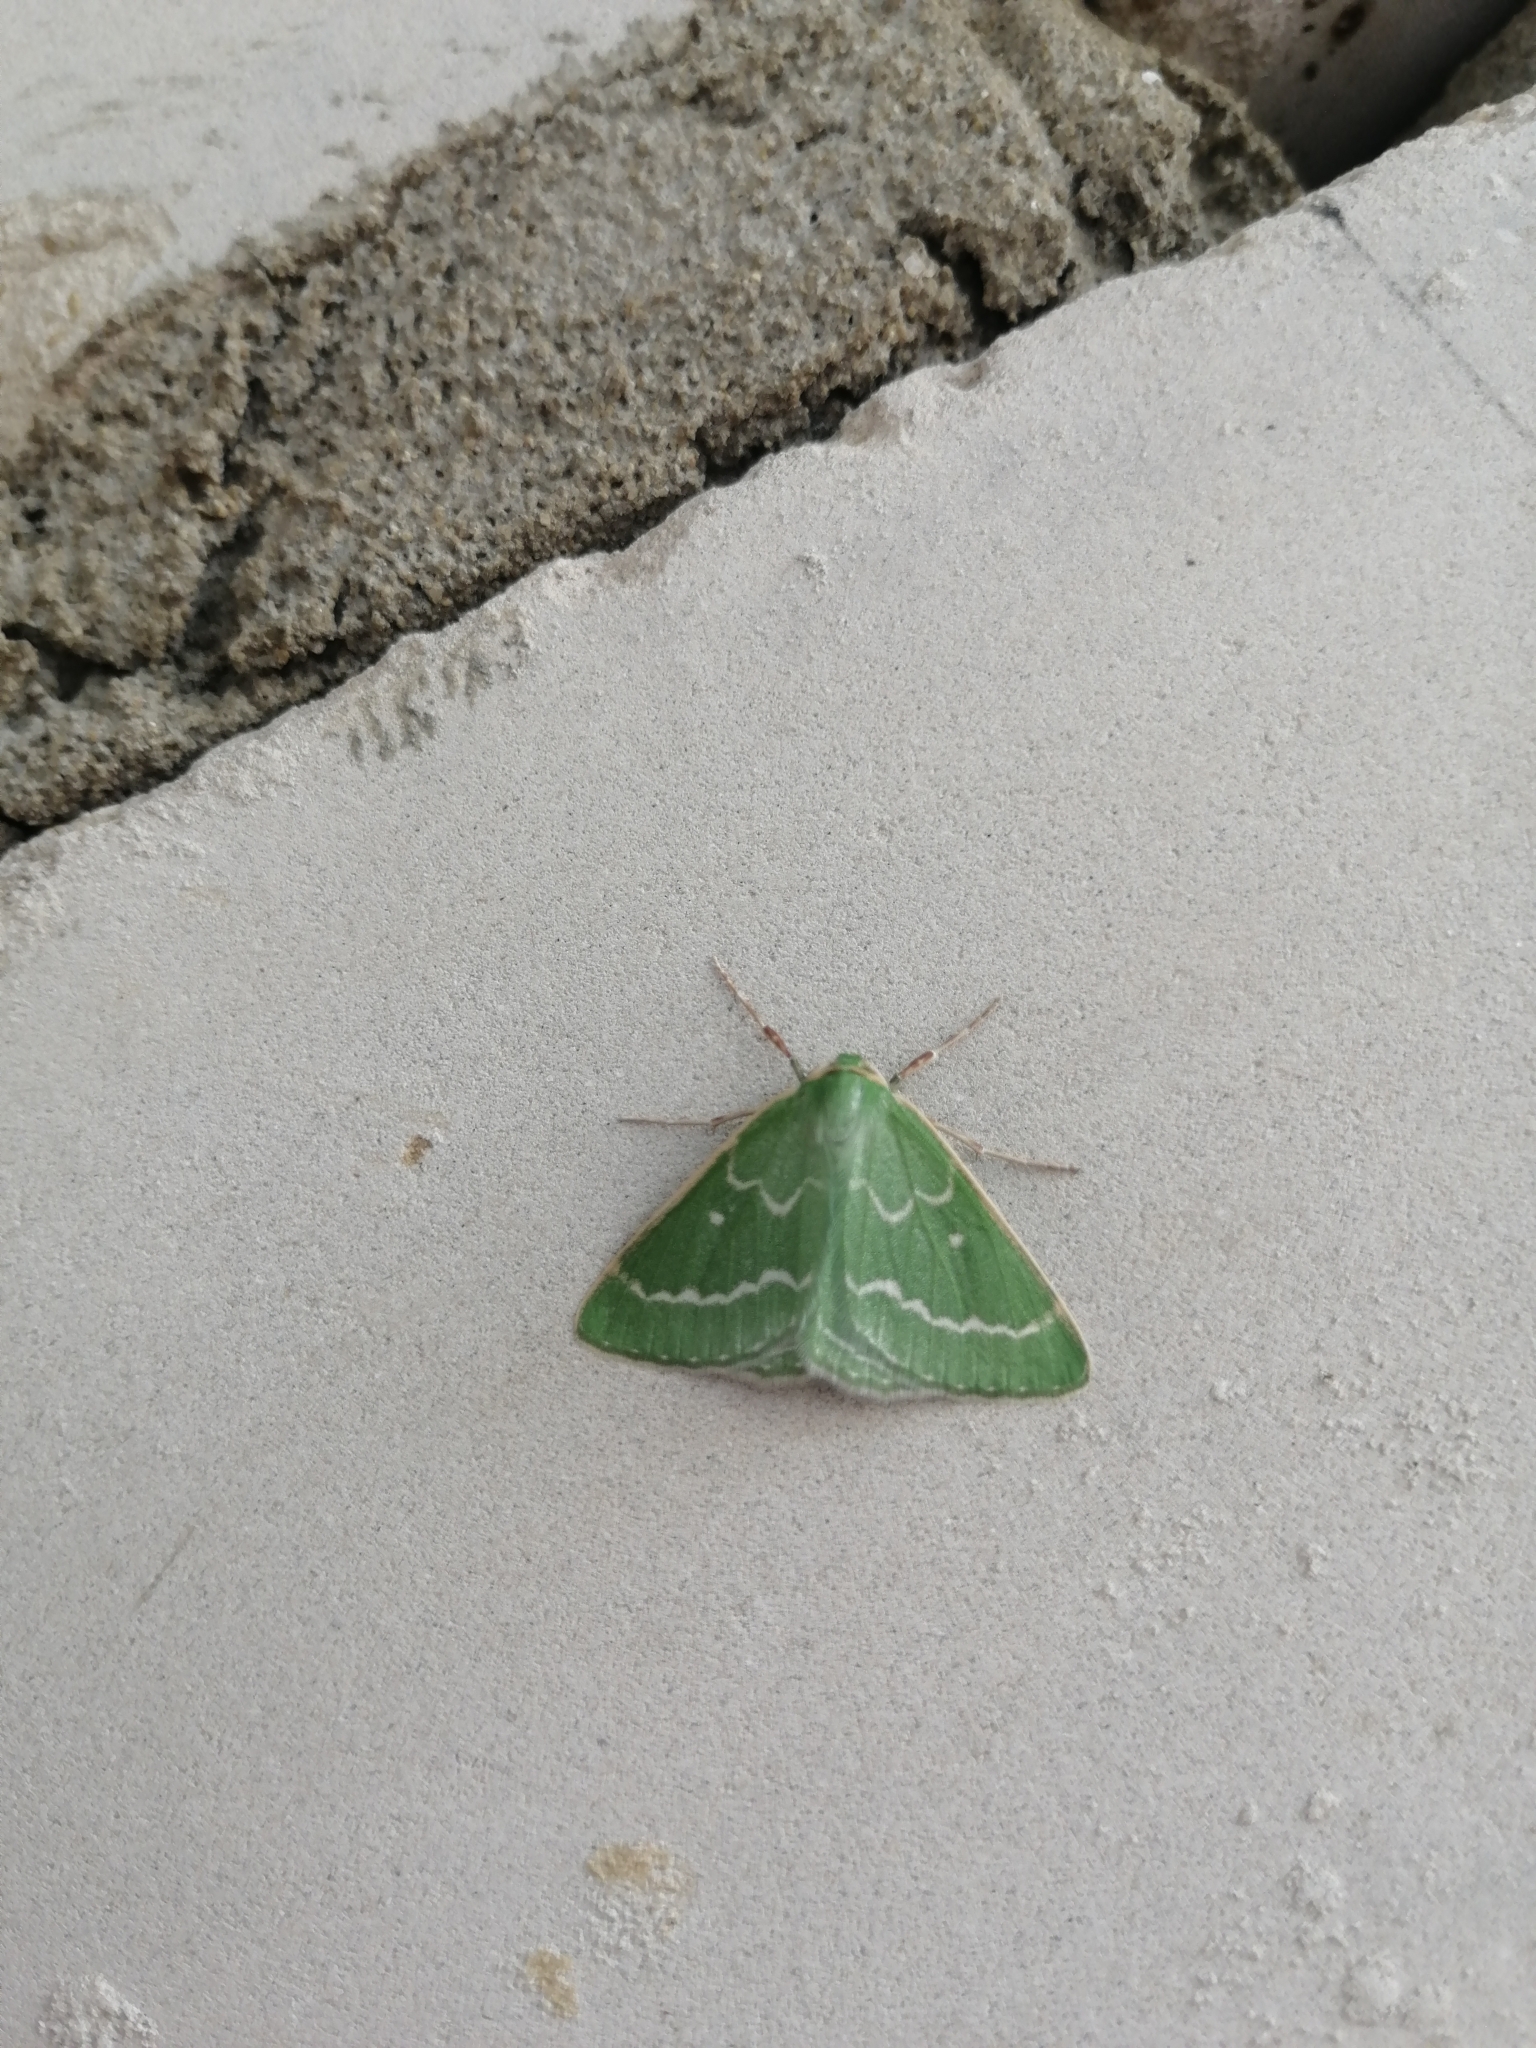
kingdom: Animalia
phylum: Arthropoda
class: Insecta
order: Lepidoptera
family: Geometridae
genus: Thetidia
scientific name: Thetidia smaragdaria
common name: Essex emerald
